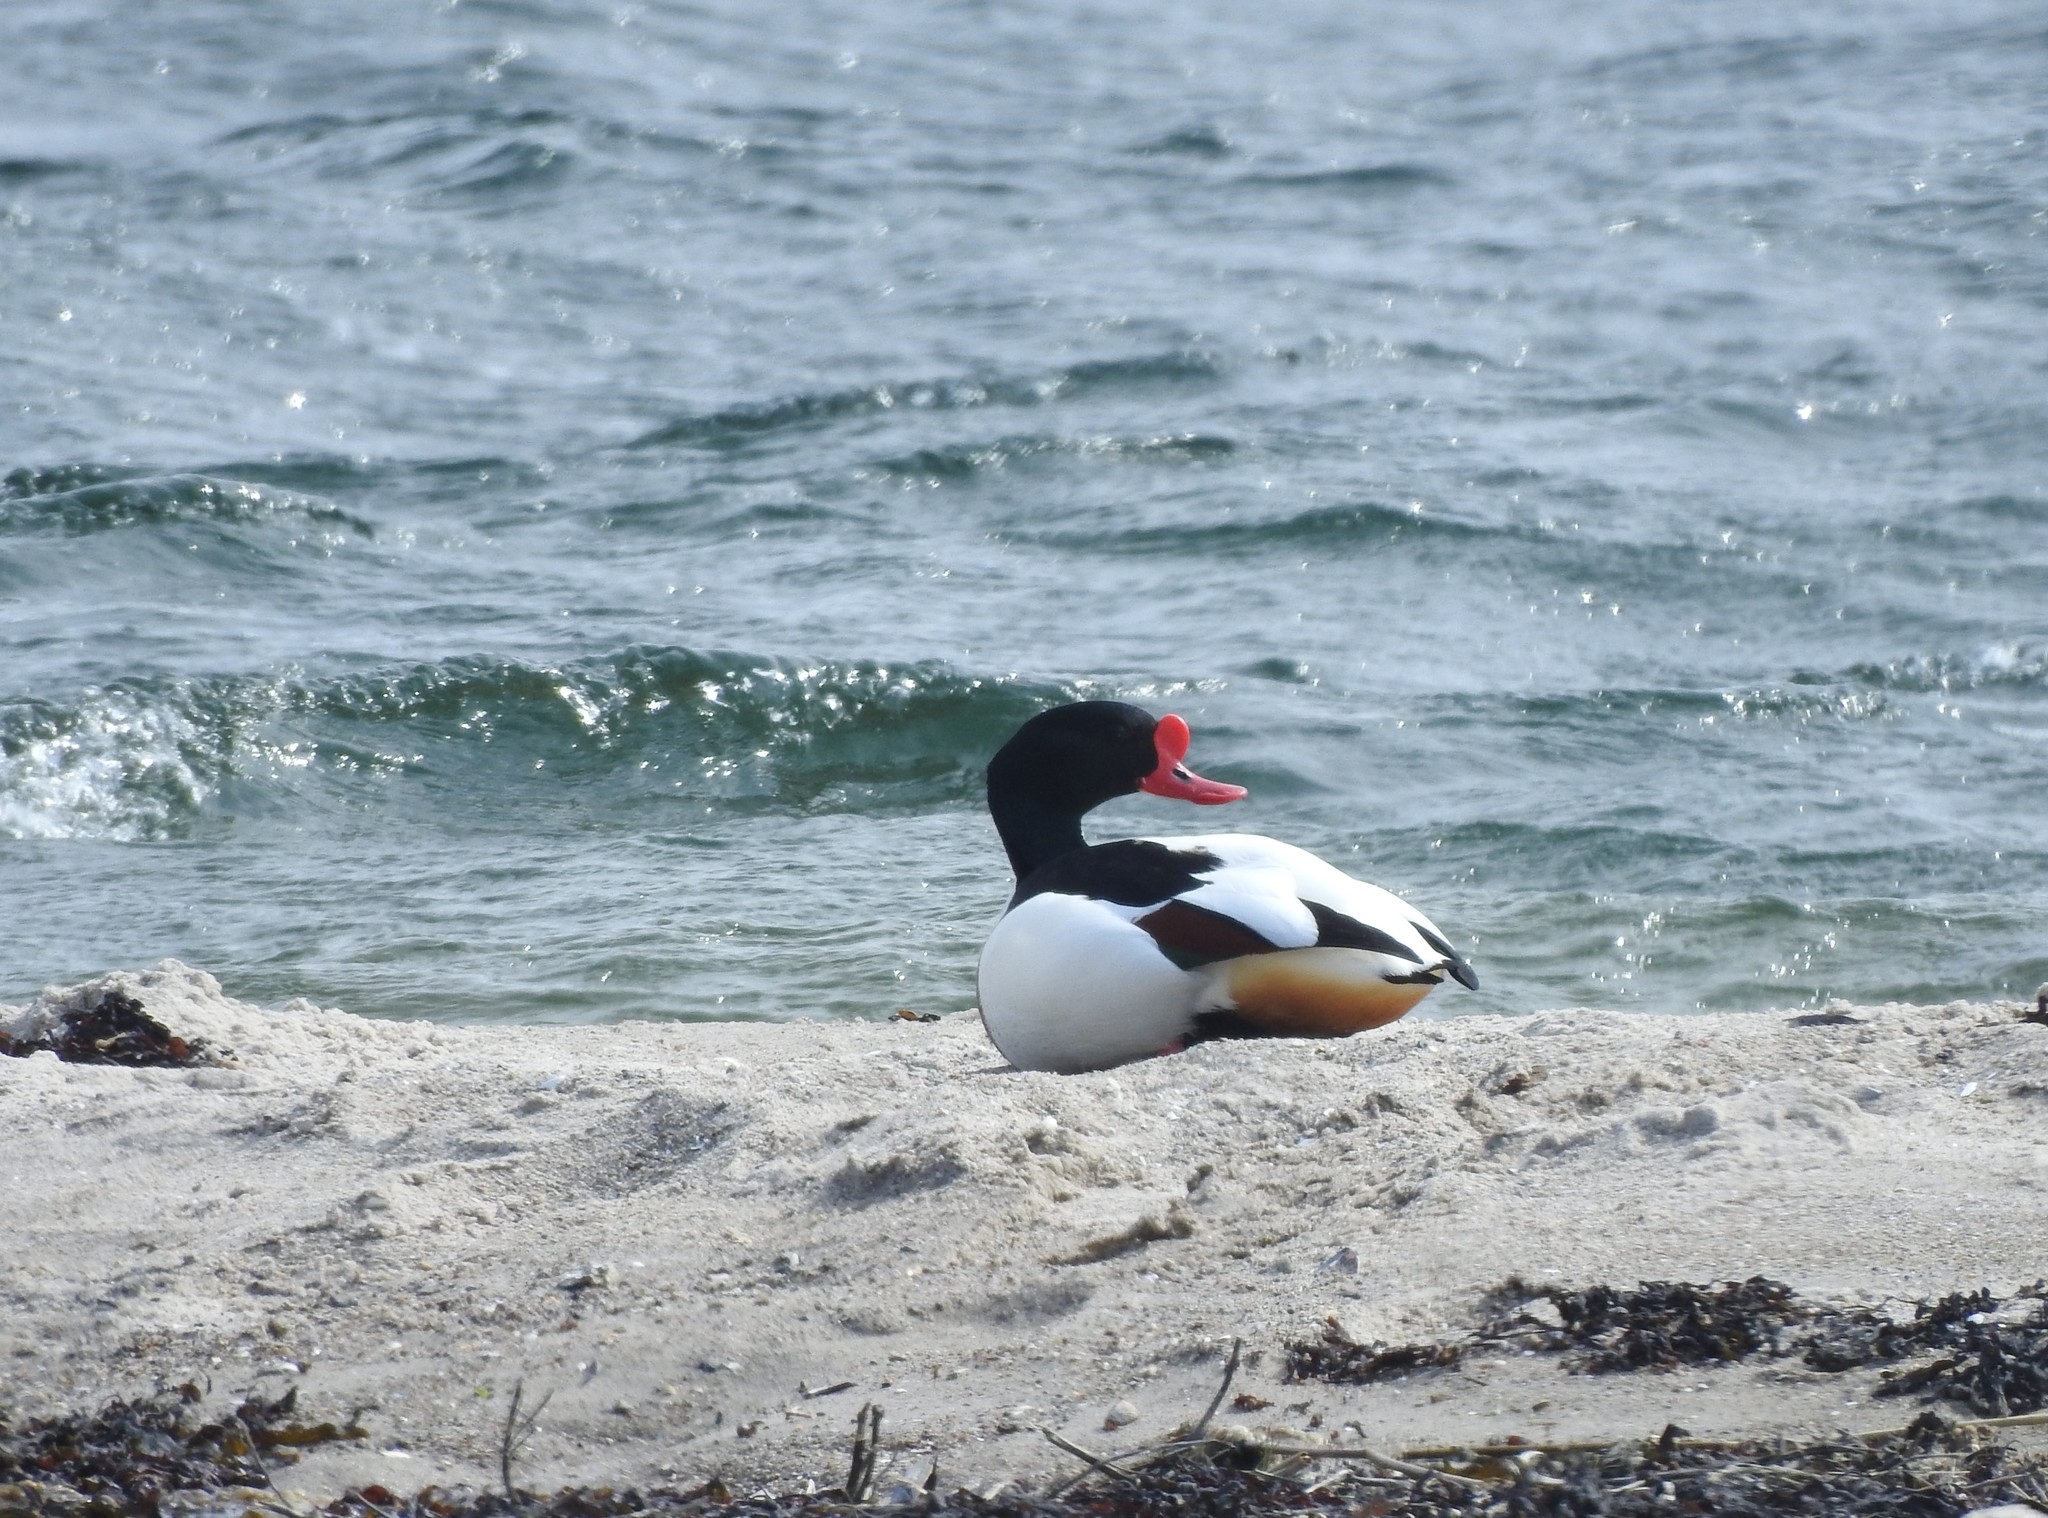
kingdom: Animalia
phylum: Chordata
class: Aves
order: Anseriformes
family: Anatidae
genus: Tadorna
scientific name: Tadorna tadorna
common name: Common shelduck
